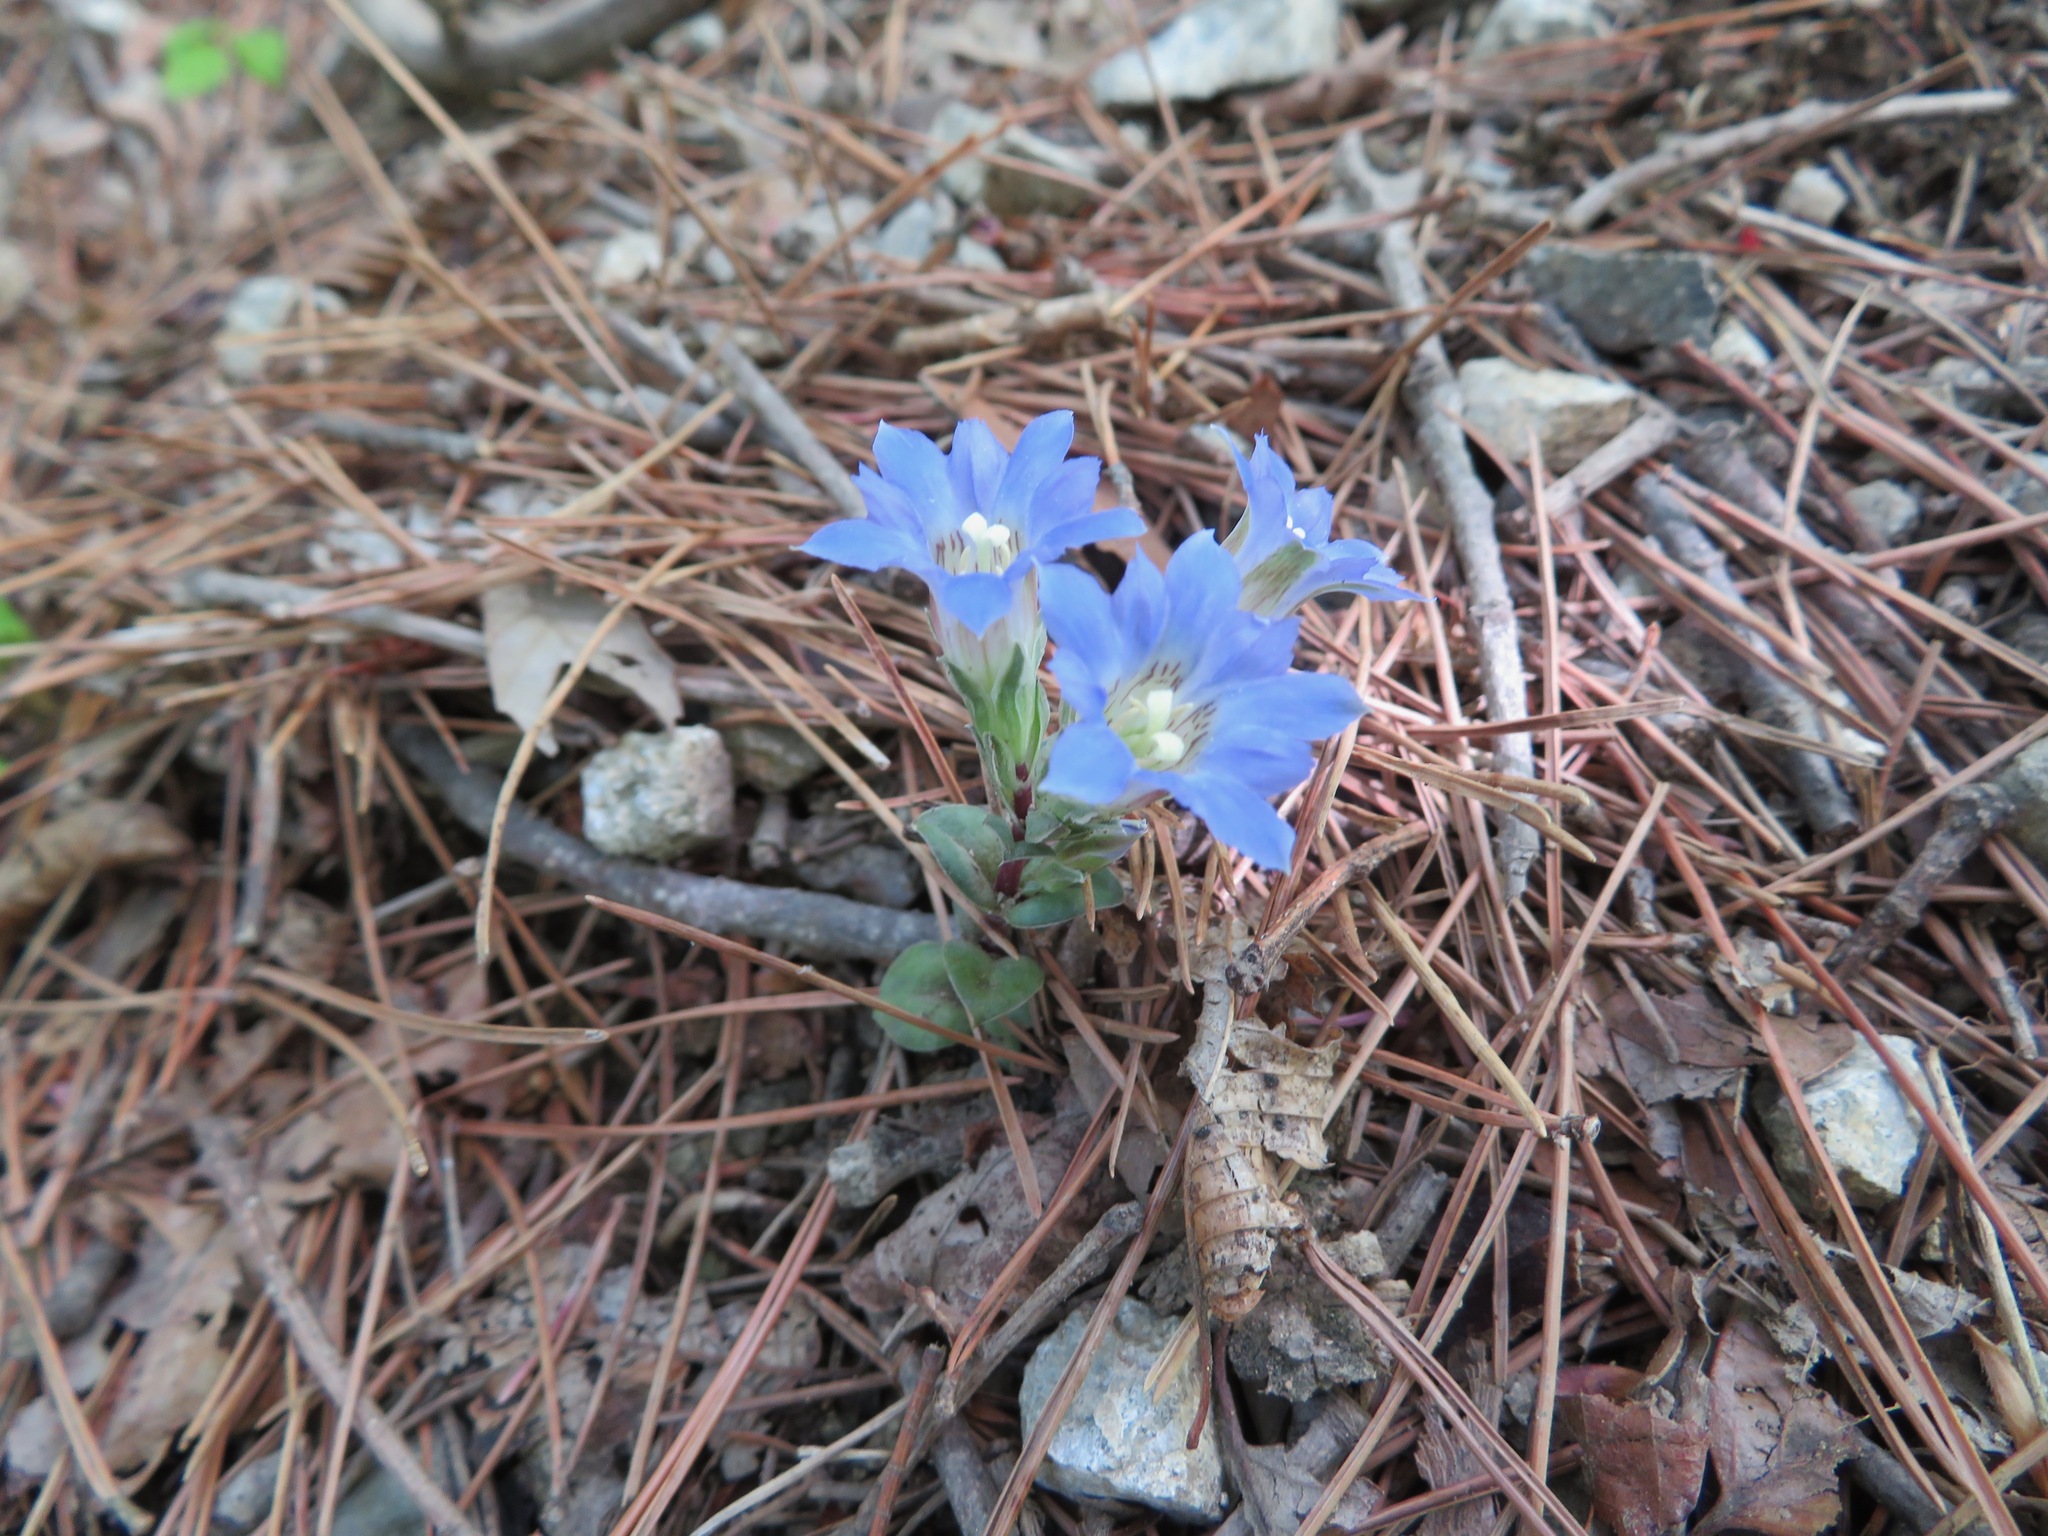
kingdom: Plantae
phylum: Tracheophyta
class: Magnoliopsida
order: Gentianales
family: Gentianaceae
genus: Gentiana
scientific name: Gentiana zollingeri
